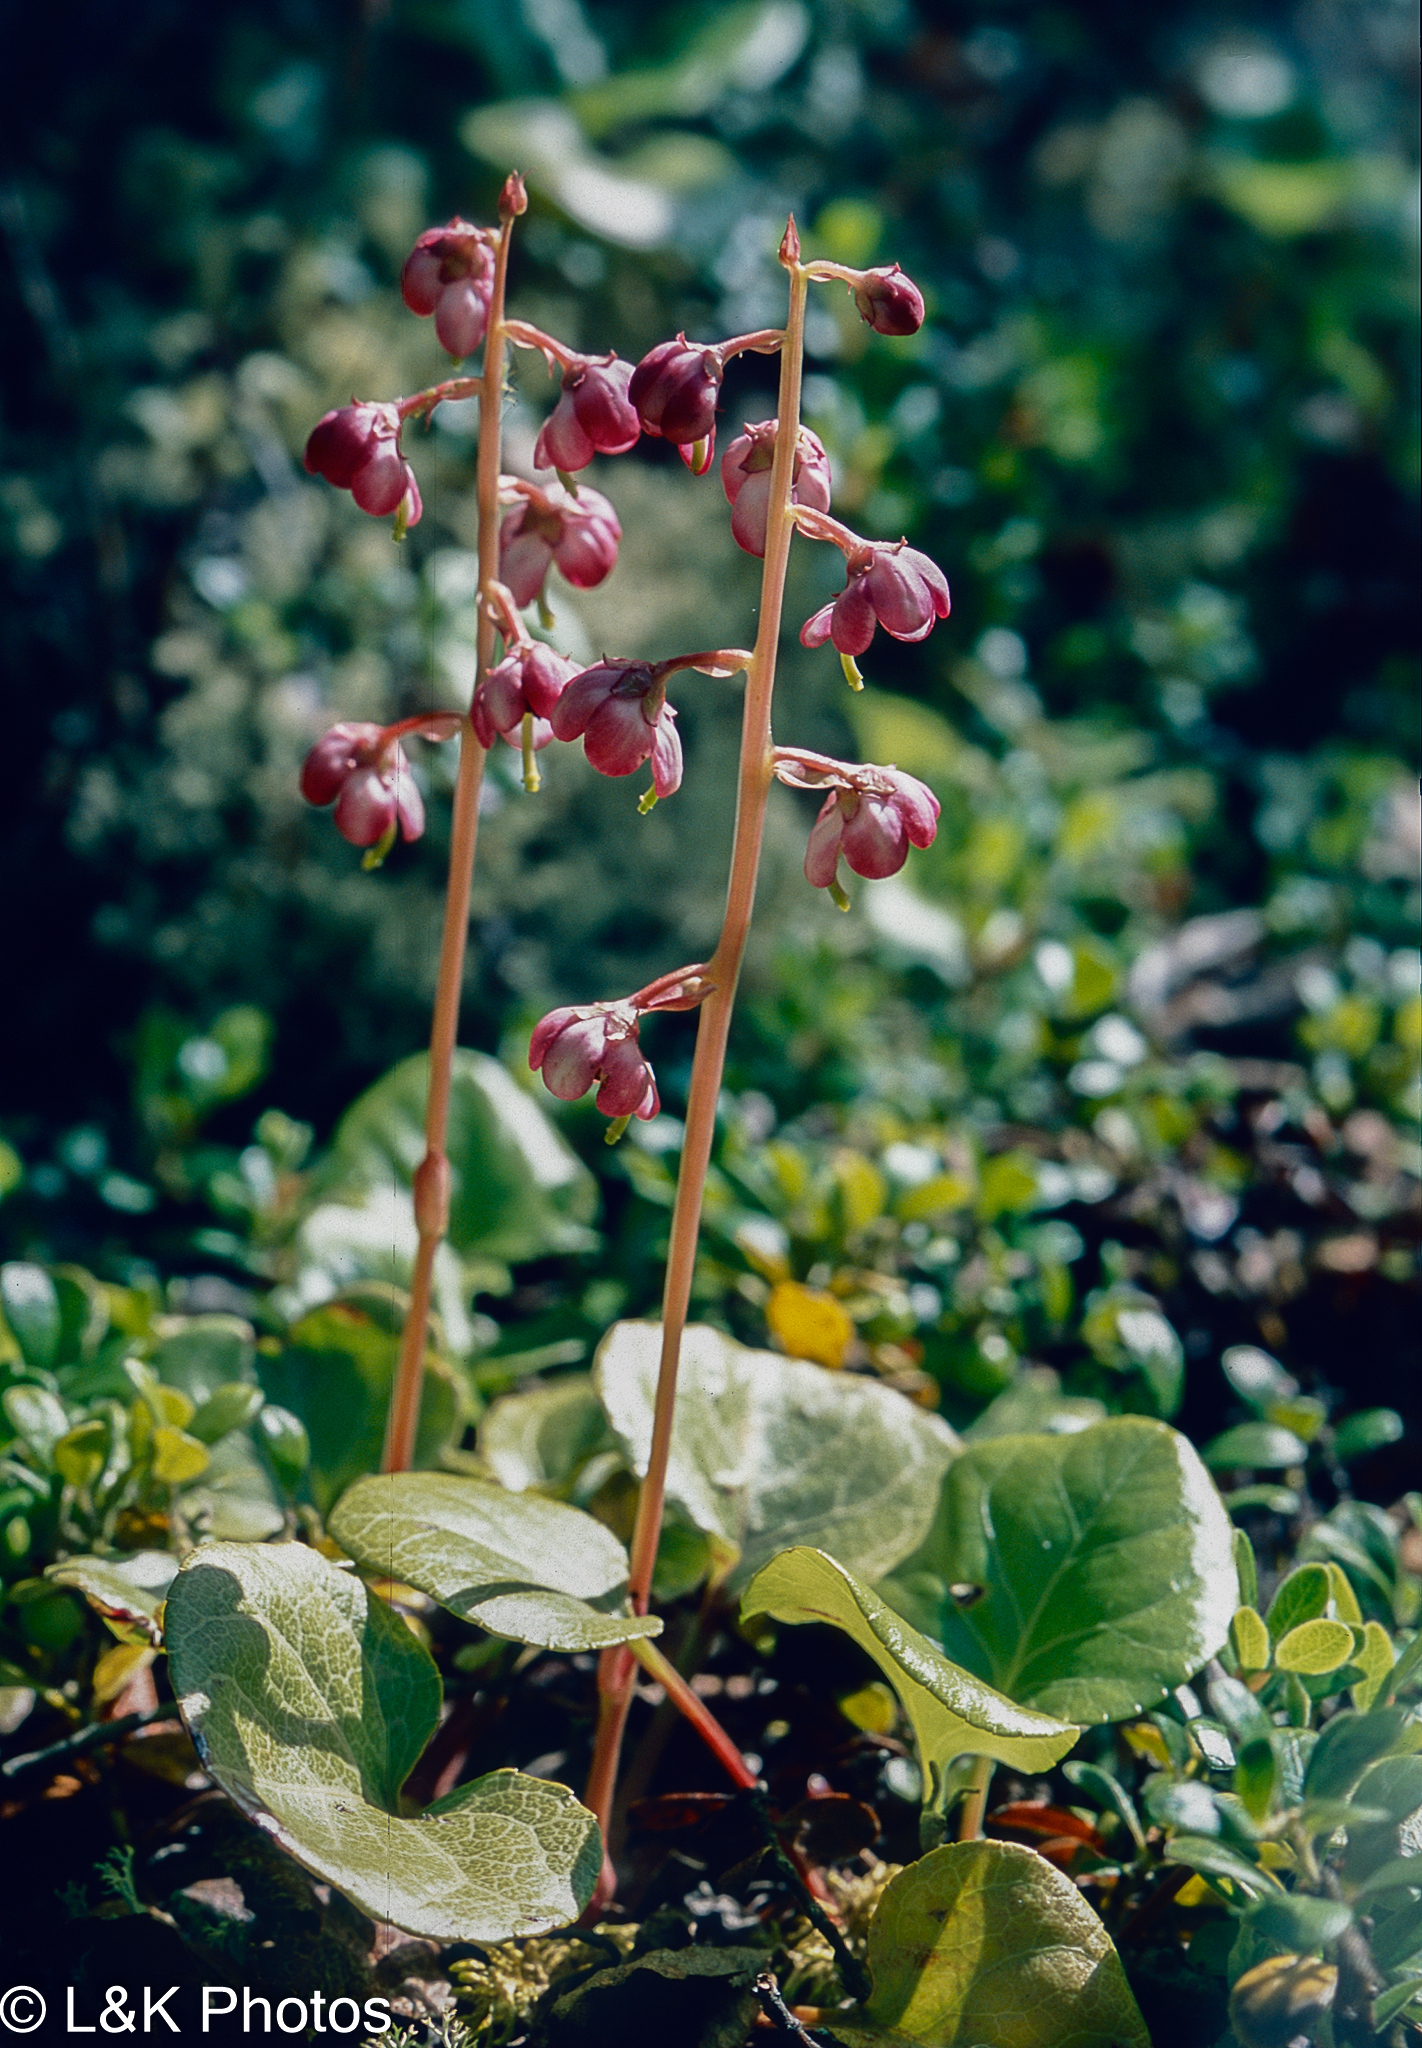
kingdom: Plantae
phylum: Tracheophyta
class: Magnoliopsida
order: Ericales
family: Ericaceae
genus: Pyrola
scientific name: Pyrola asarifolia
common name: Bog wintergreen
